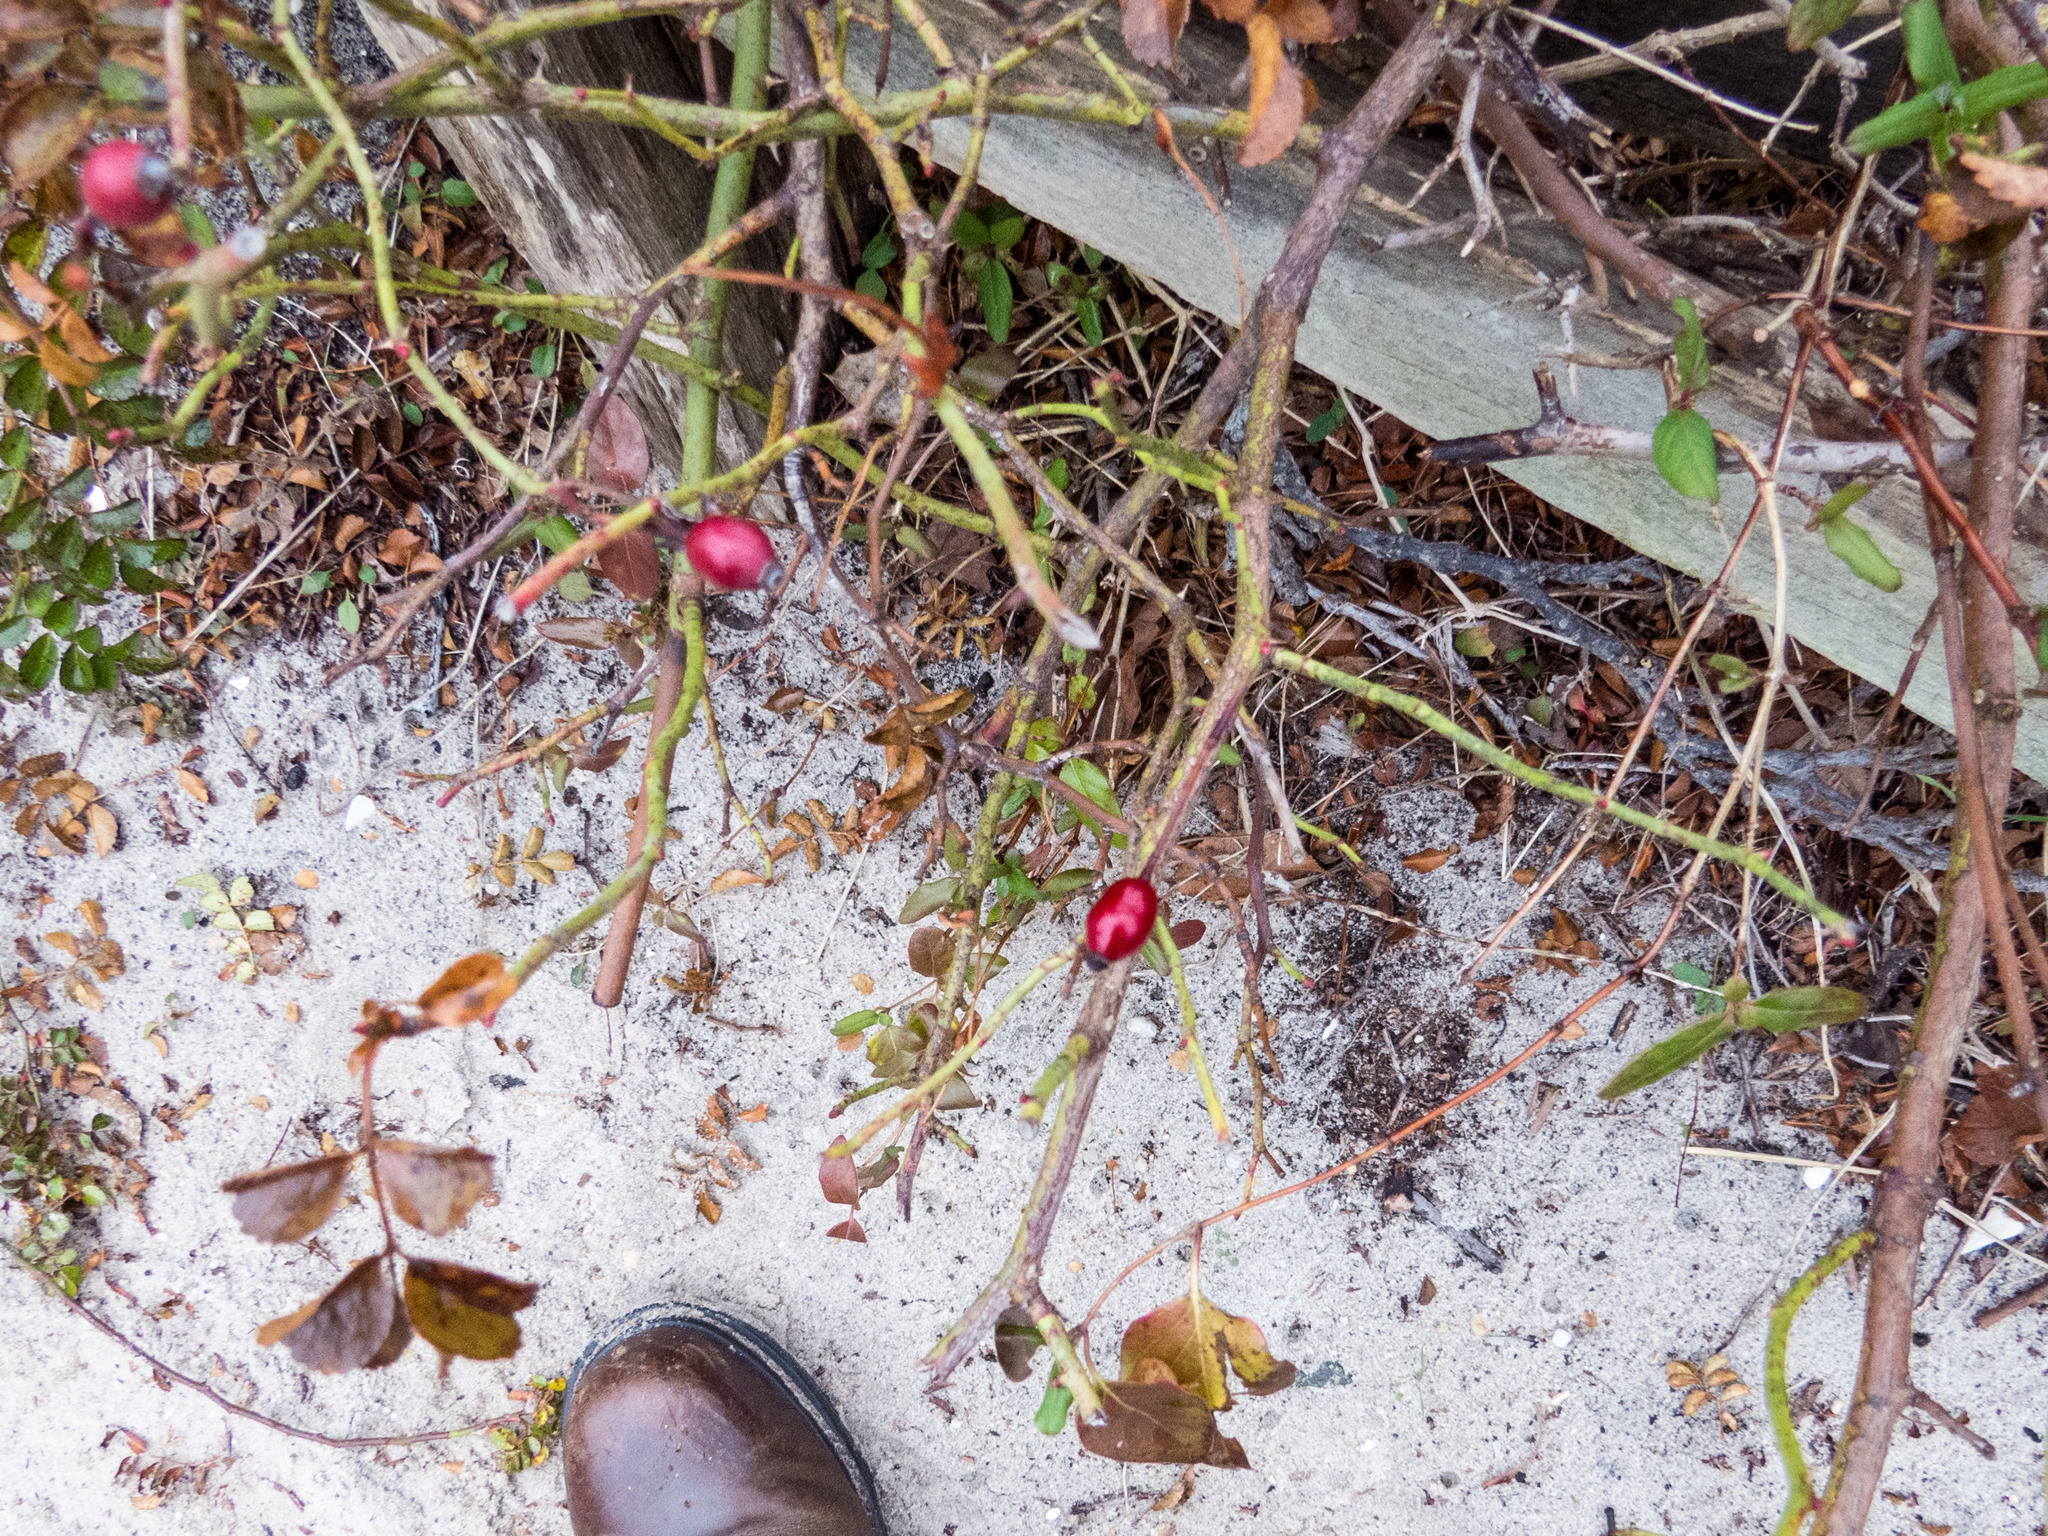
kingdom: Plantae
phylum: Tracheophyta
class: Magnoliopsida
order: Rosales
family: Rosaceae
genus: Rosa
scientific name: Rosa carolina
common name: Pasture rose
